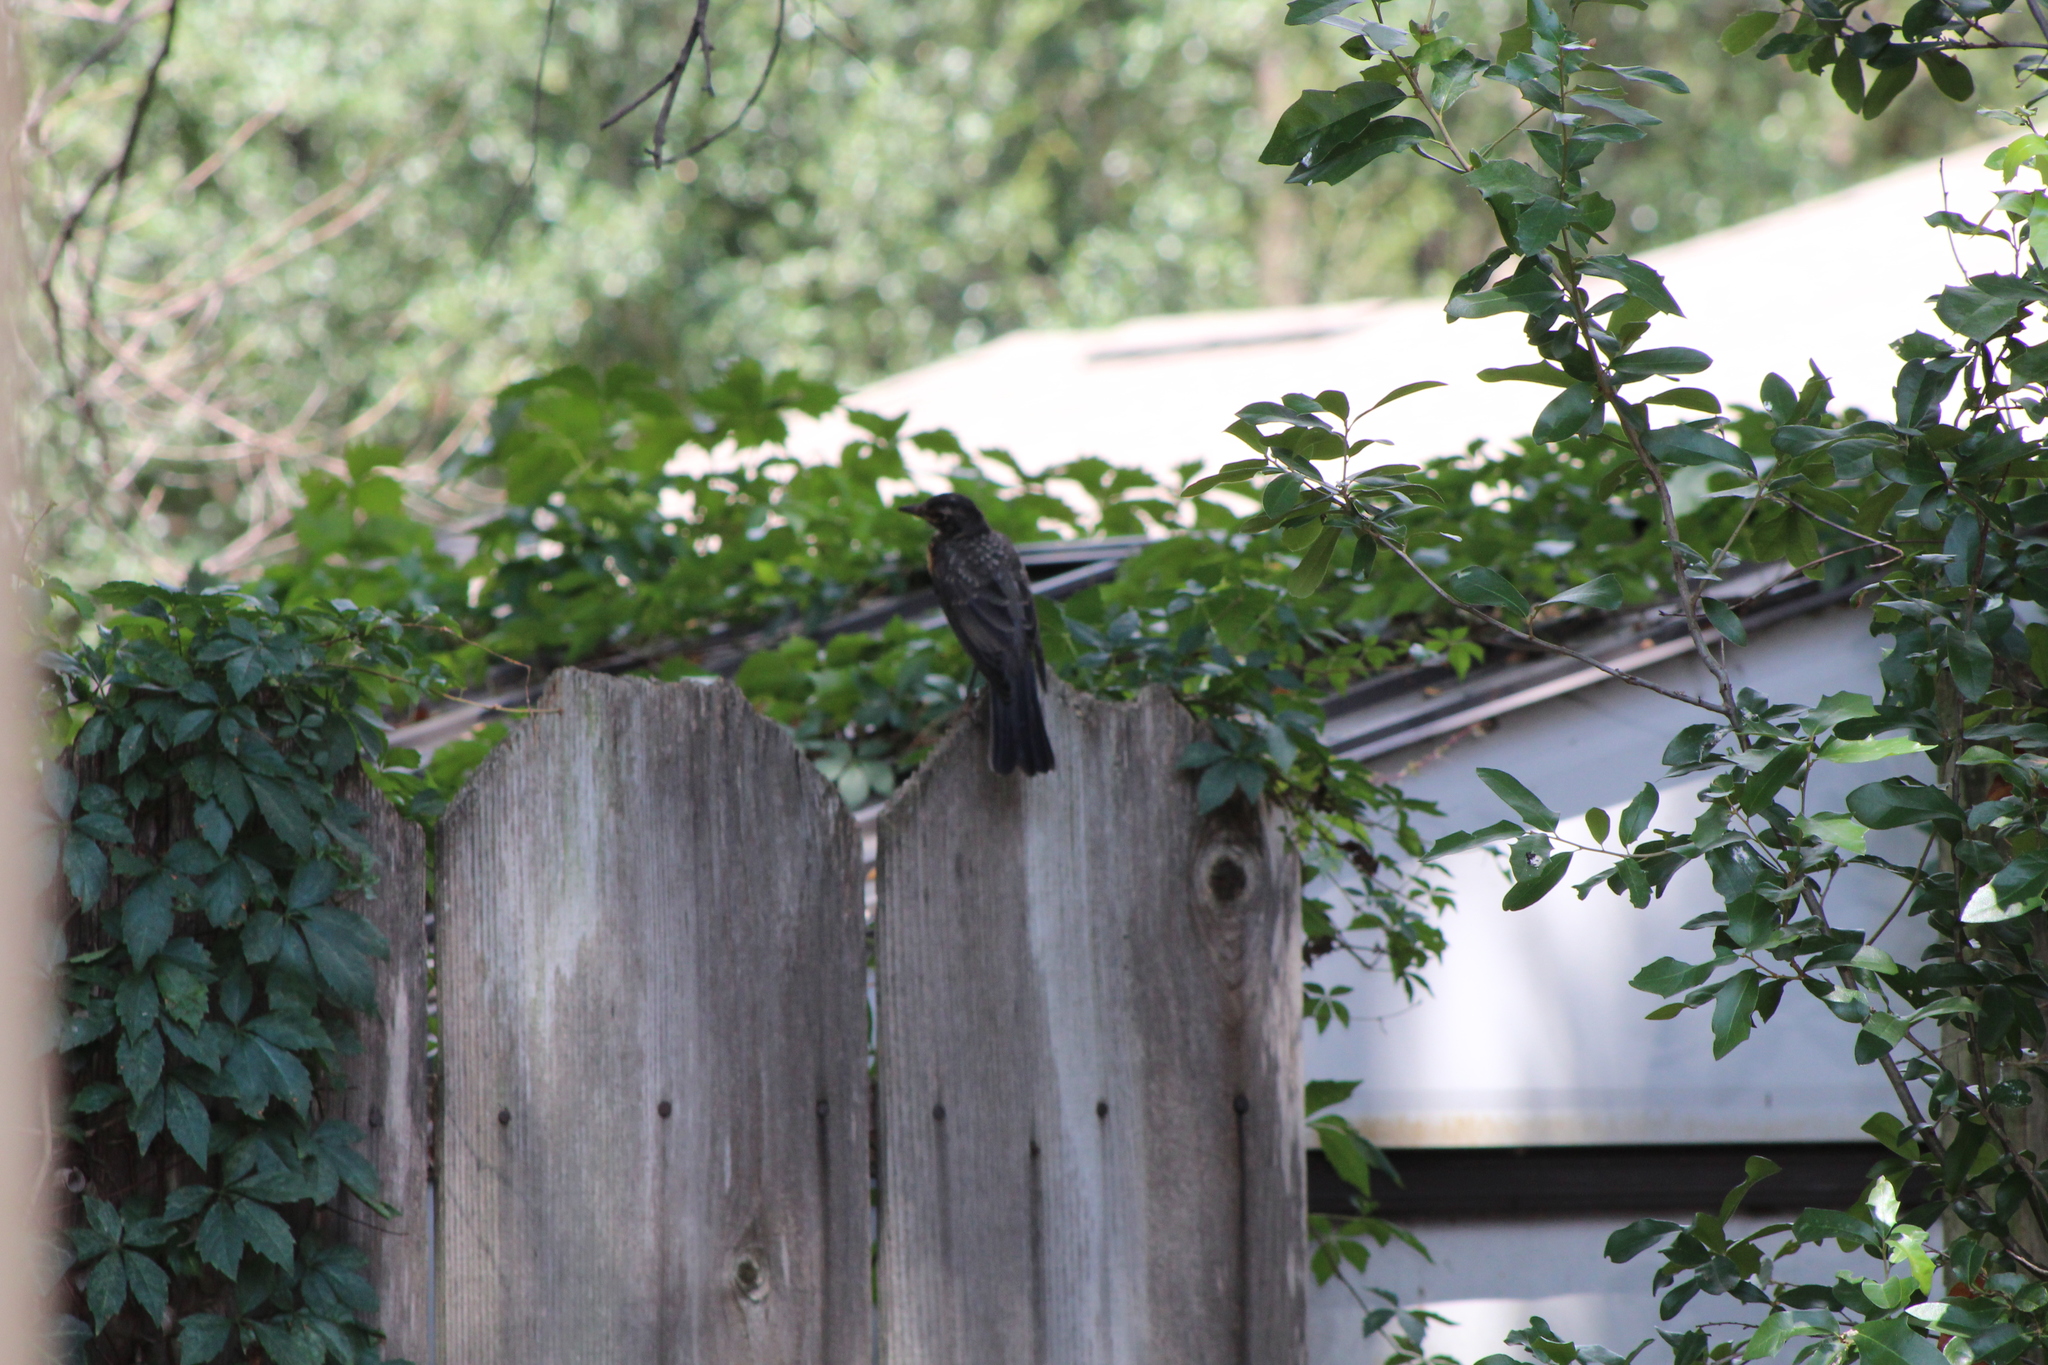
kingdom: Animalia
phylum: Chordata
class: Aves
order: Passeriformes
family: Turdidae
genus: Turdus
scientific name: Turdus migratorius
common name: American robin
